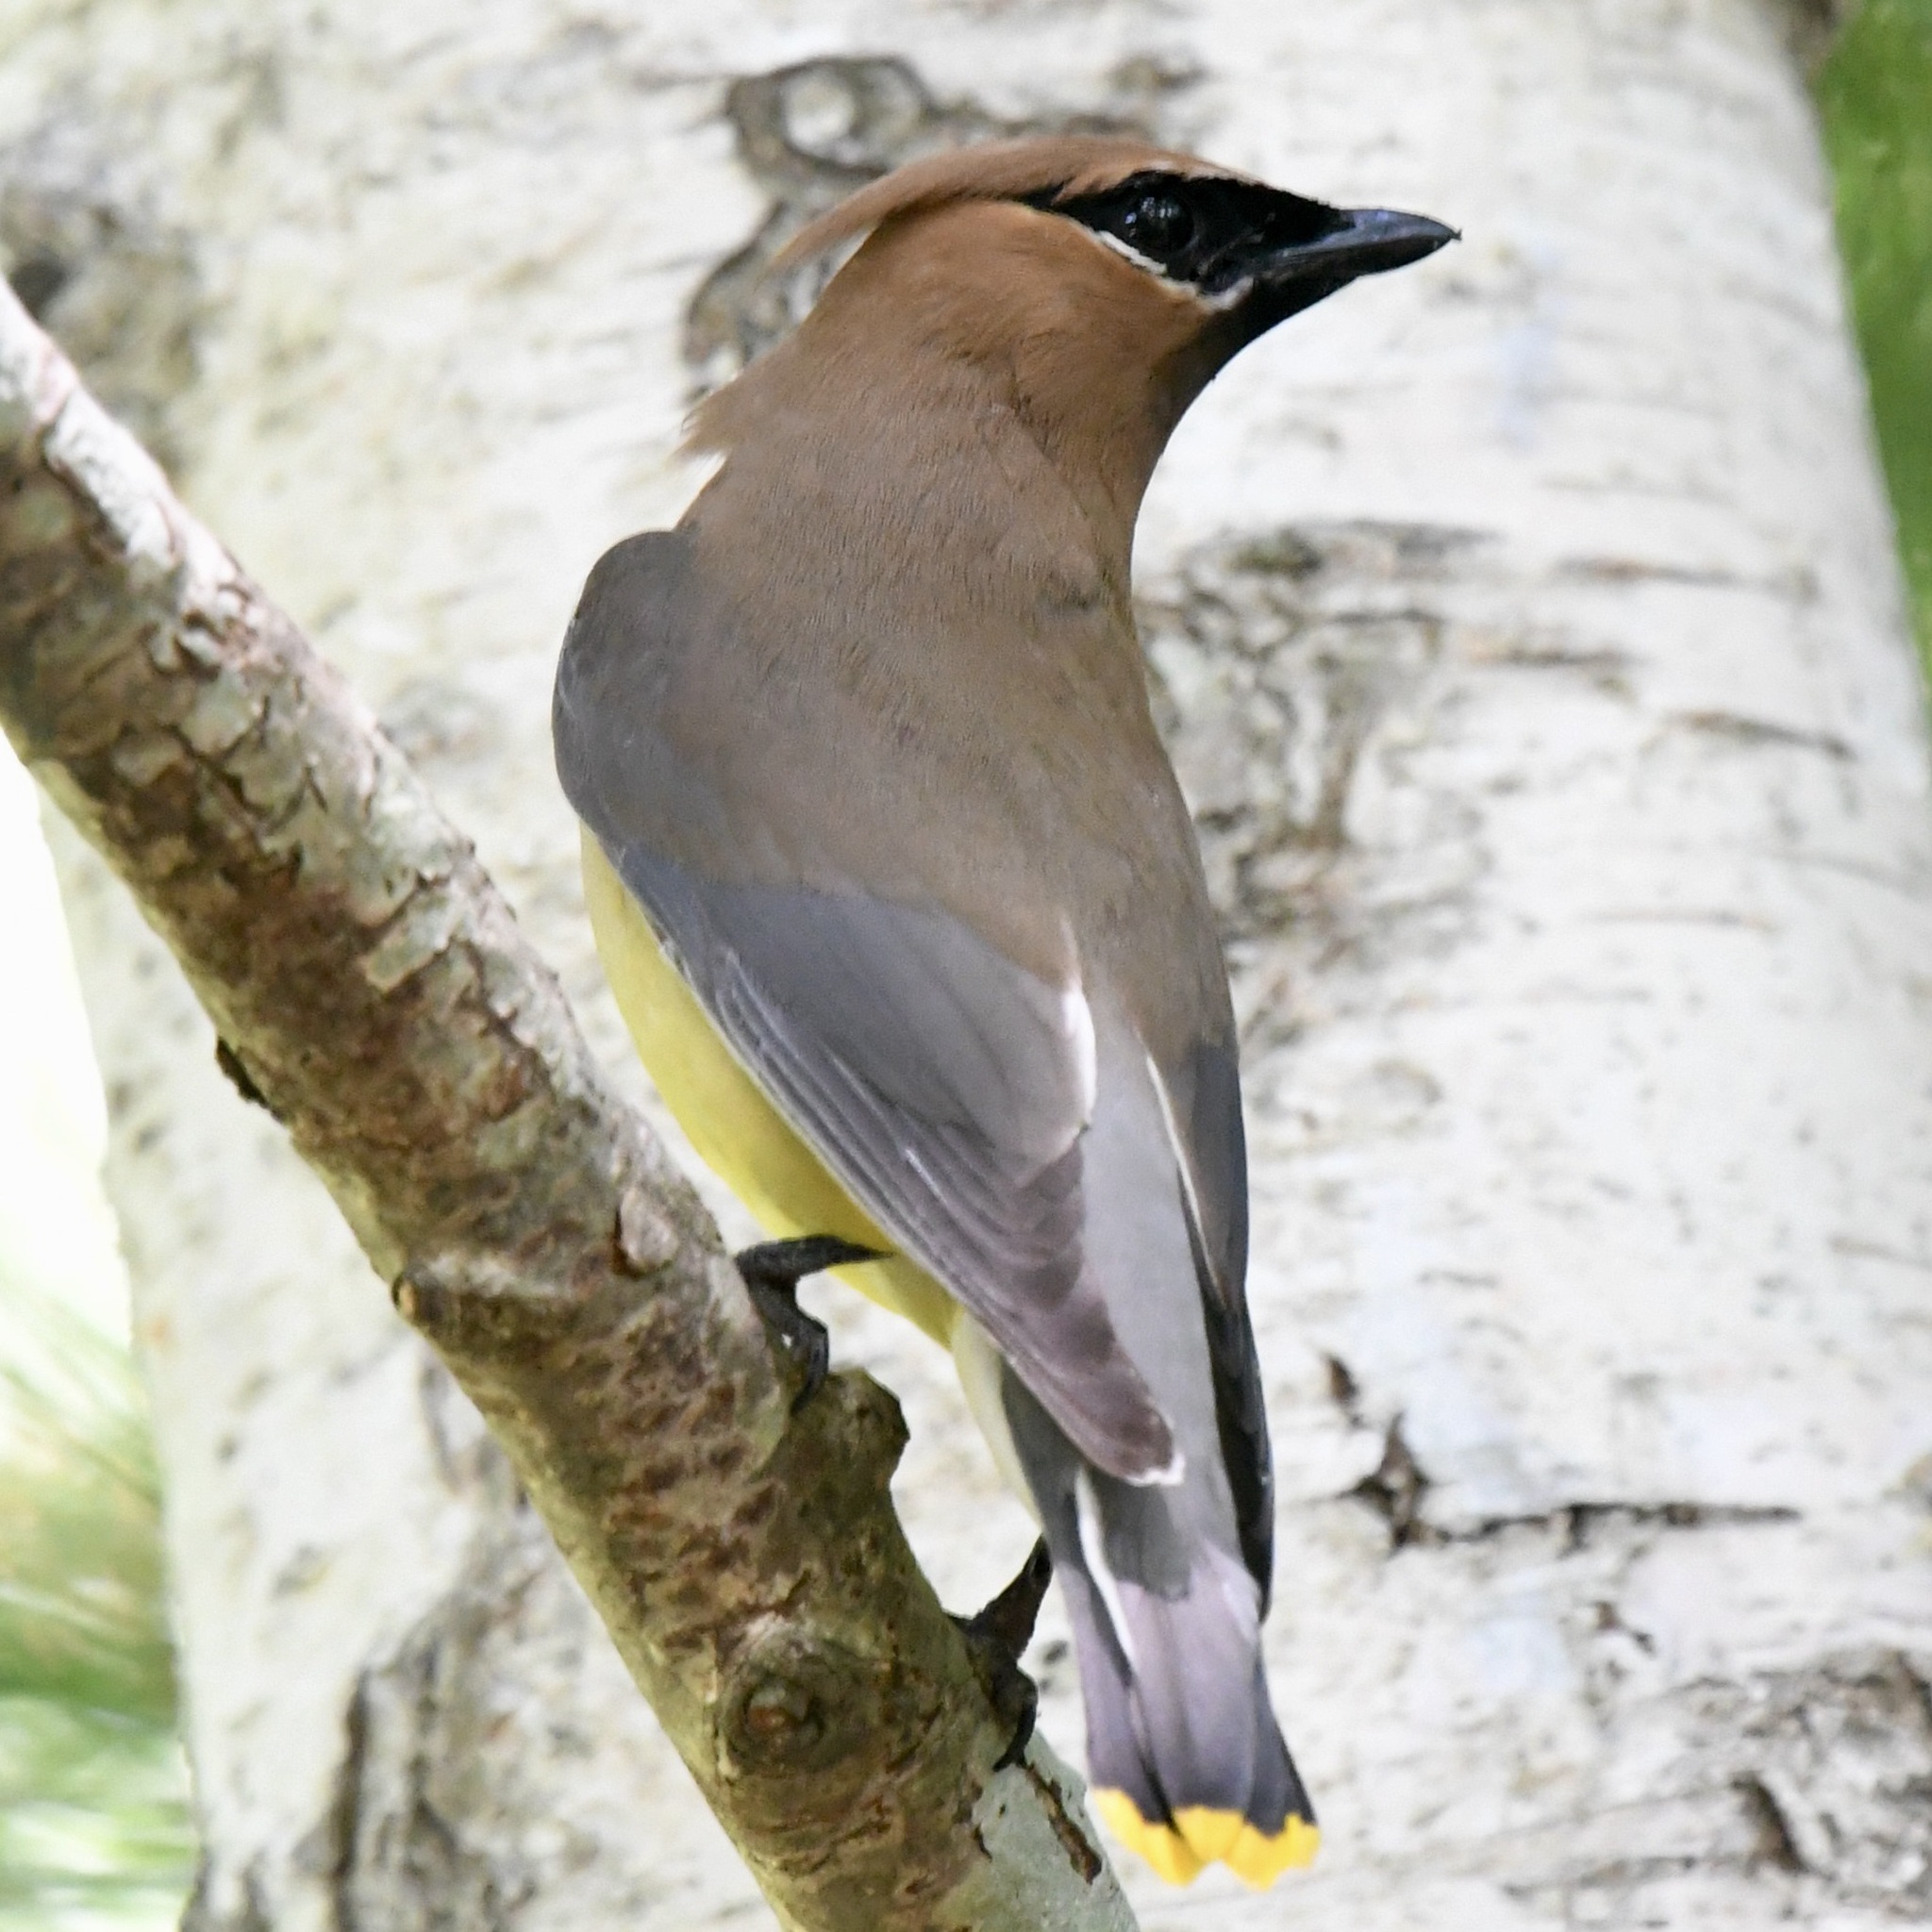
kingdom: Animalia
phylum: Chordata
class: Aves
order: Passeriformes
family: Bombycillidae
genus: Bombycilla
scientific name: Bombycilla cedrorum
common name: Cedar waxwing
